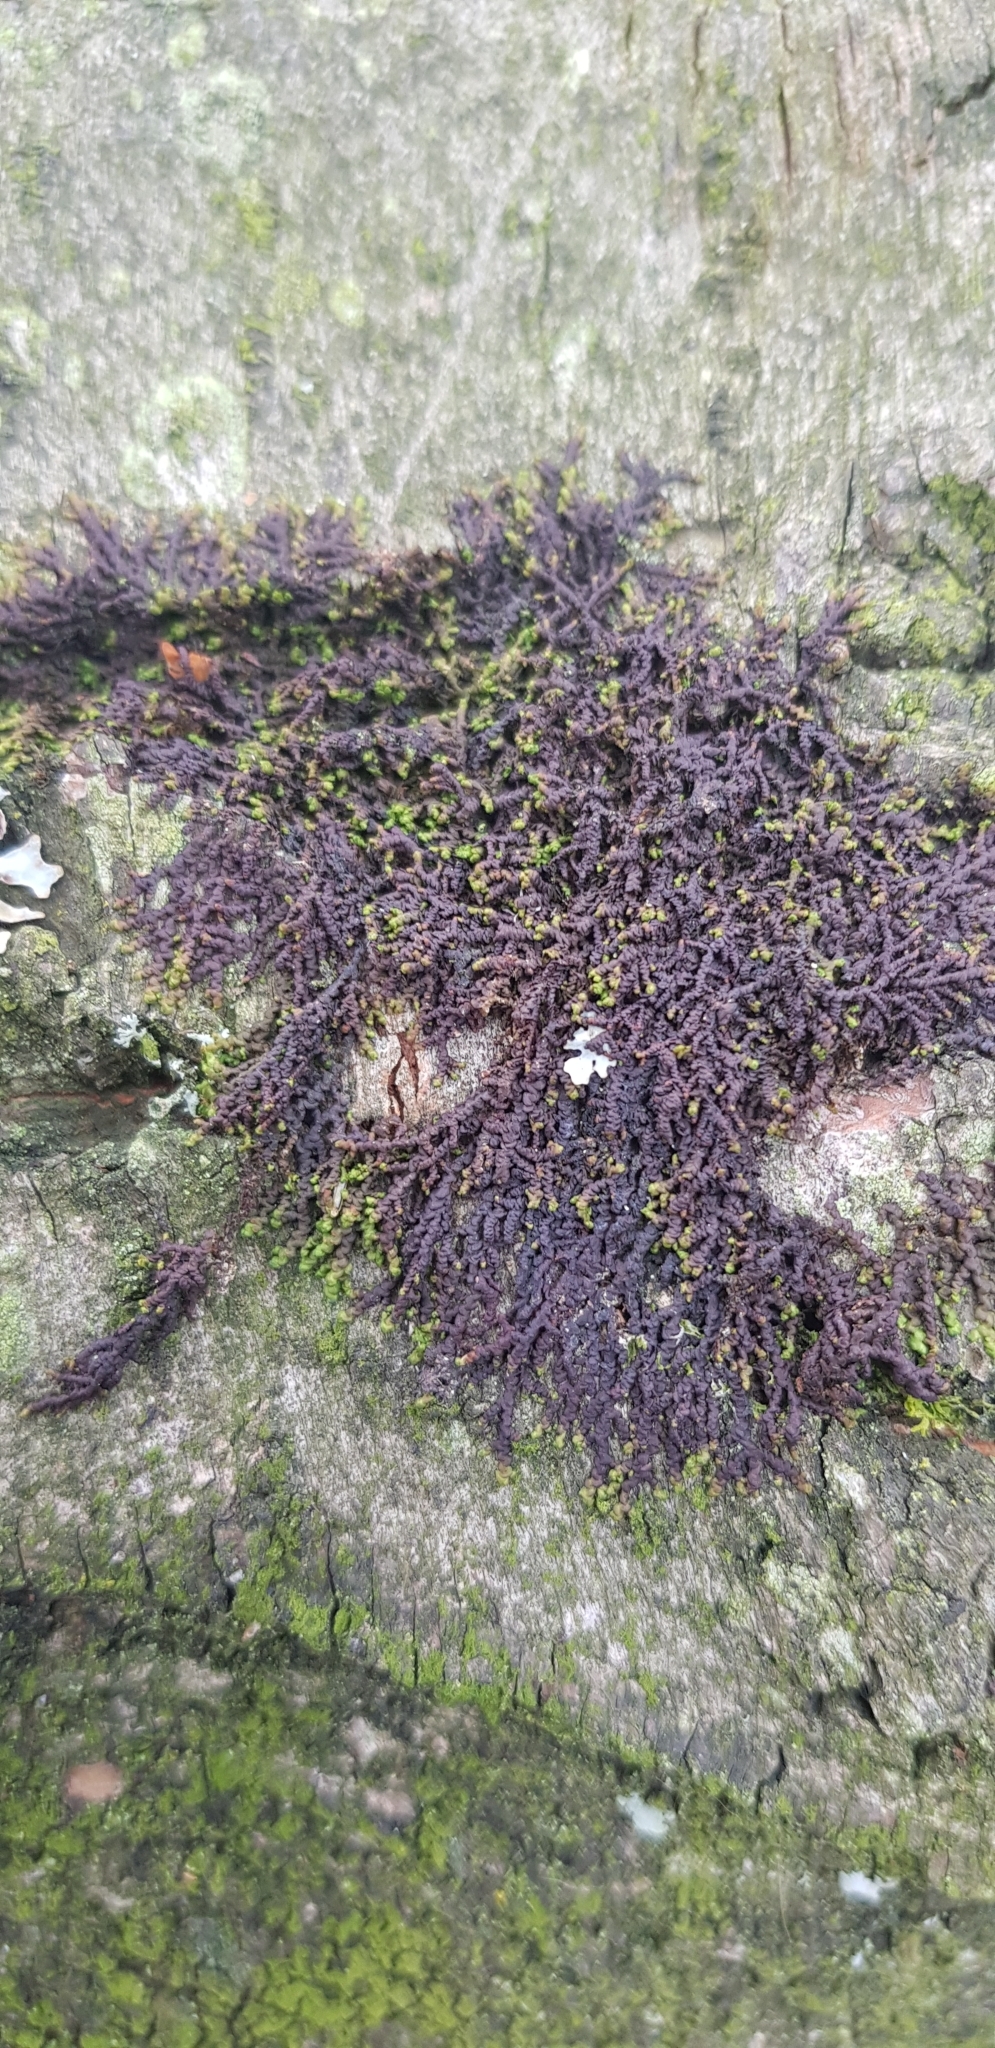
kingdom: Plantae
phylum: Marchantiophyta
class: Jungermanniopsida
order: Porellales
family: Frullaniaceae
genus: Frullania
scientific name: Frullania dilatata
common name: Dilated scalewort
